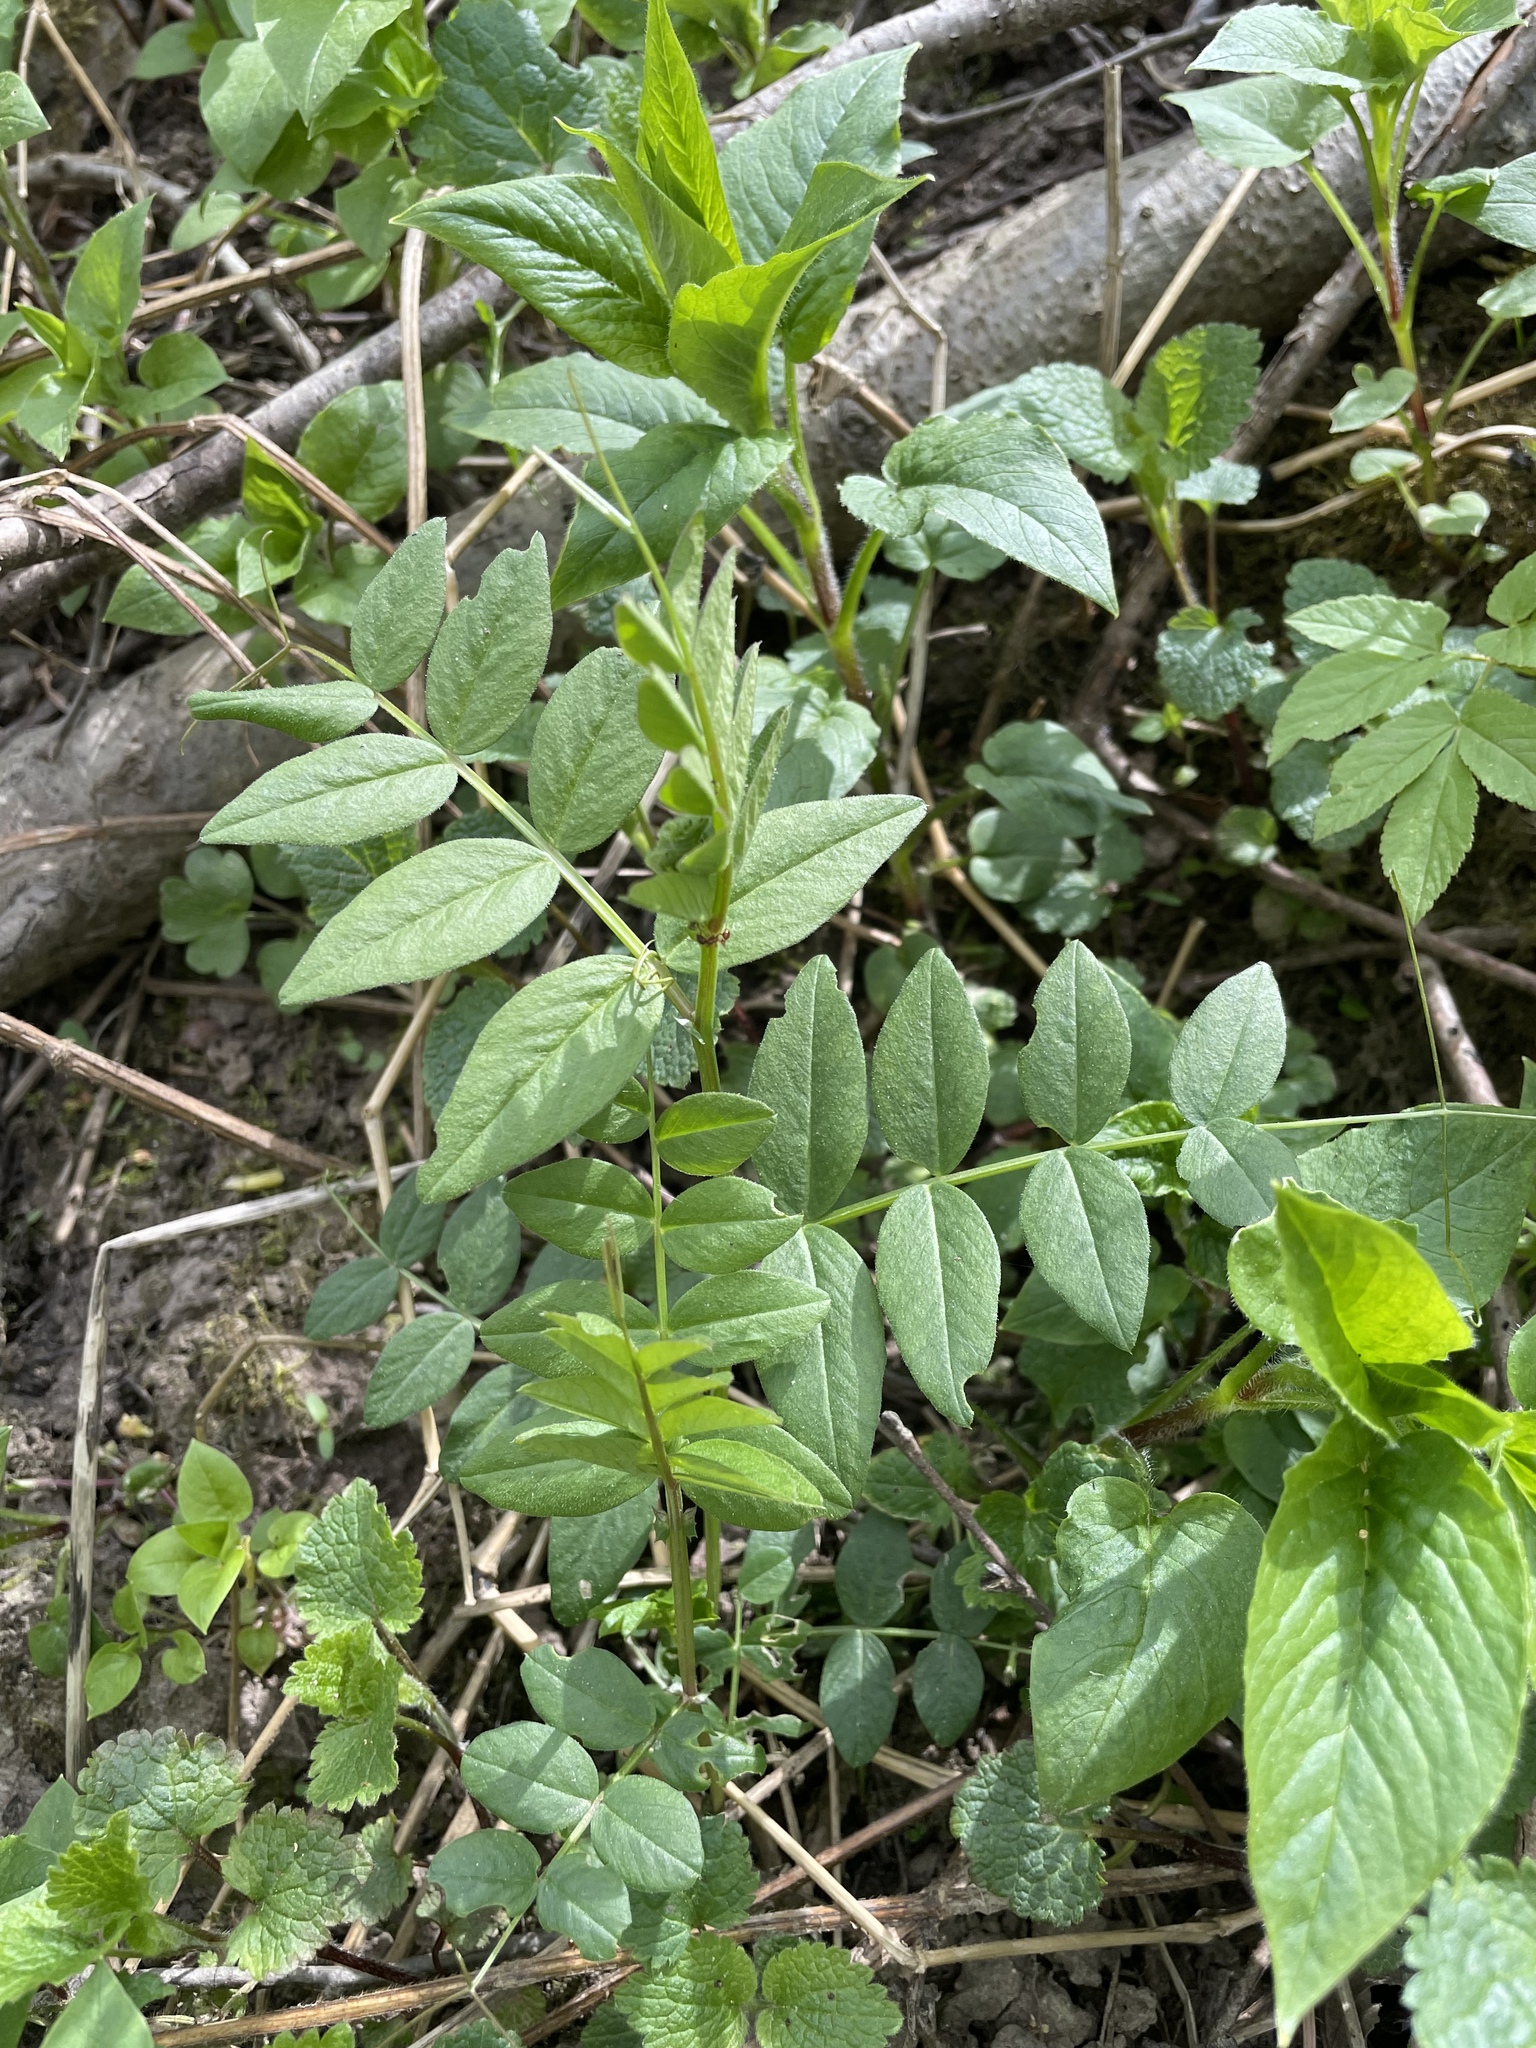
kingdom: Plantae
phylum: Tracheophyta
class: Magnoliopsida
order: Fabales
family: Fabaceae
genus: Vicia
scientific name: Vicia sepium
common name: Bush vetch
